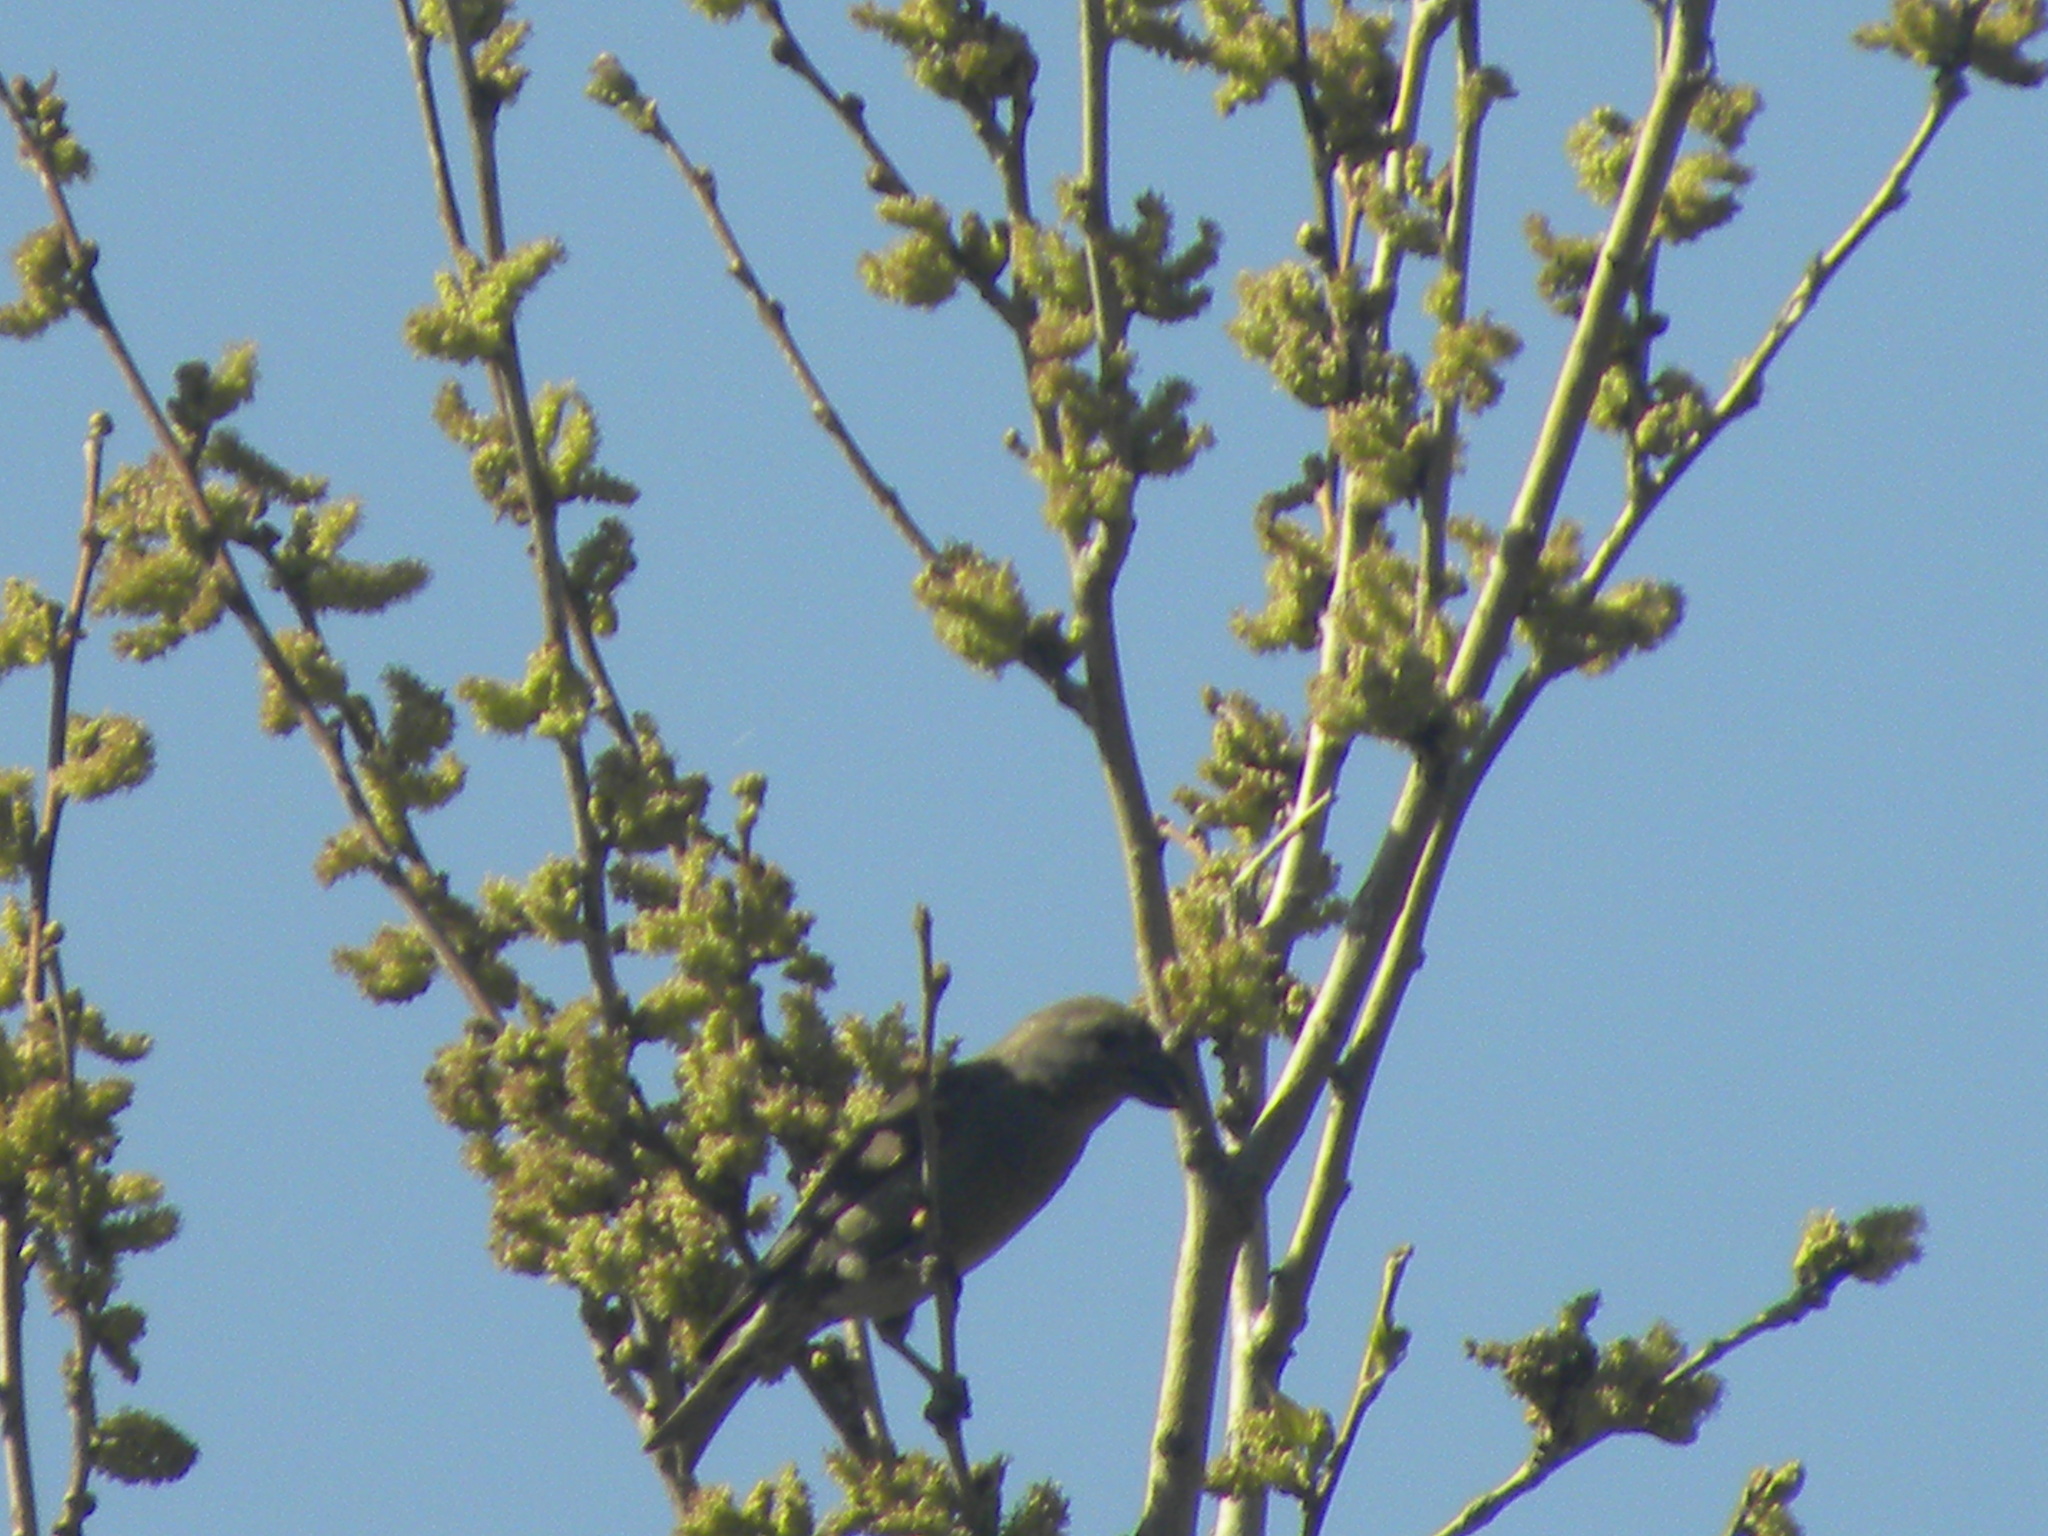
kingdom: Animalia
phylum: Chordata
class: Aves
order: Passeriformes
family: Fringillidae
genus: Loxia
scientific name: Loxia curvirostra
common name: Red crossbill
